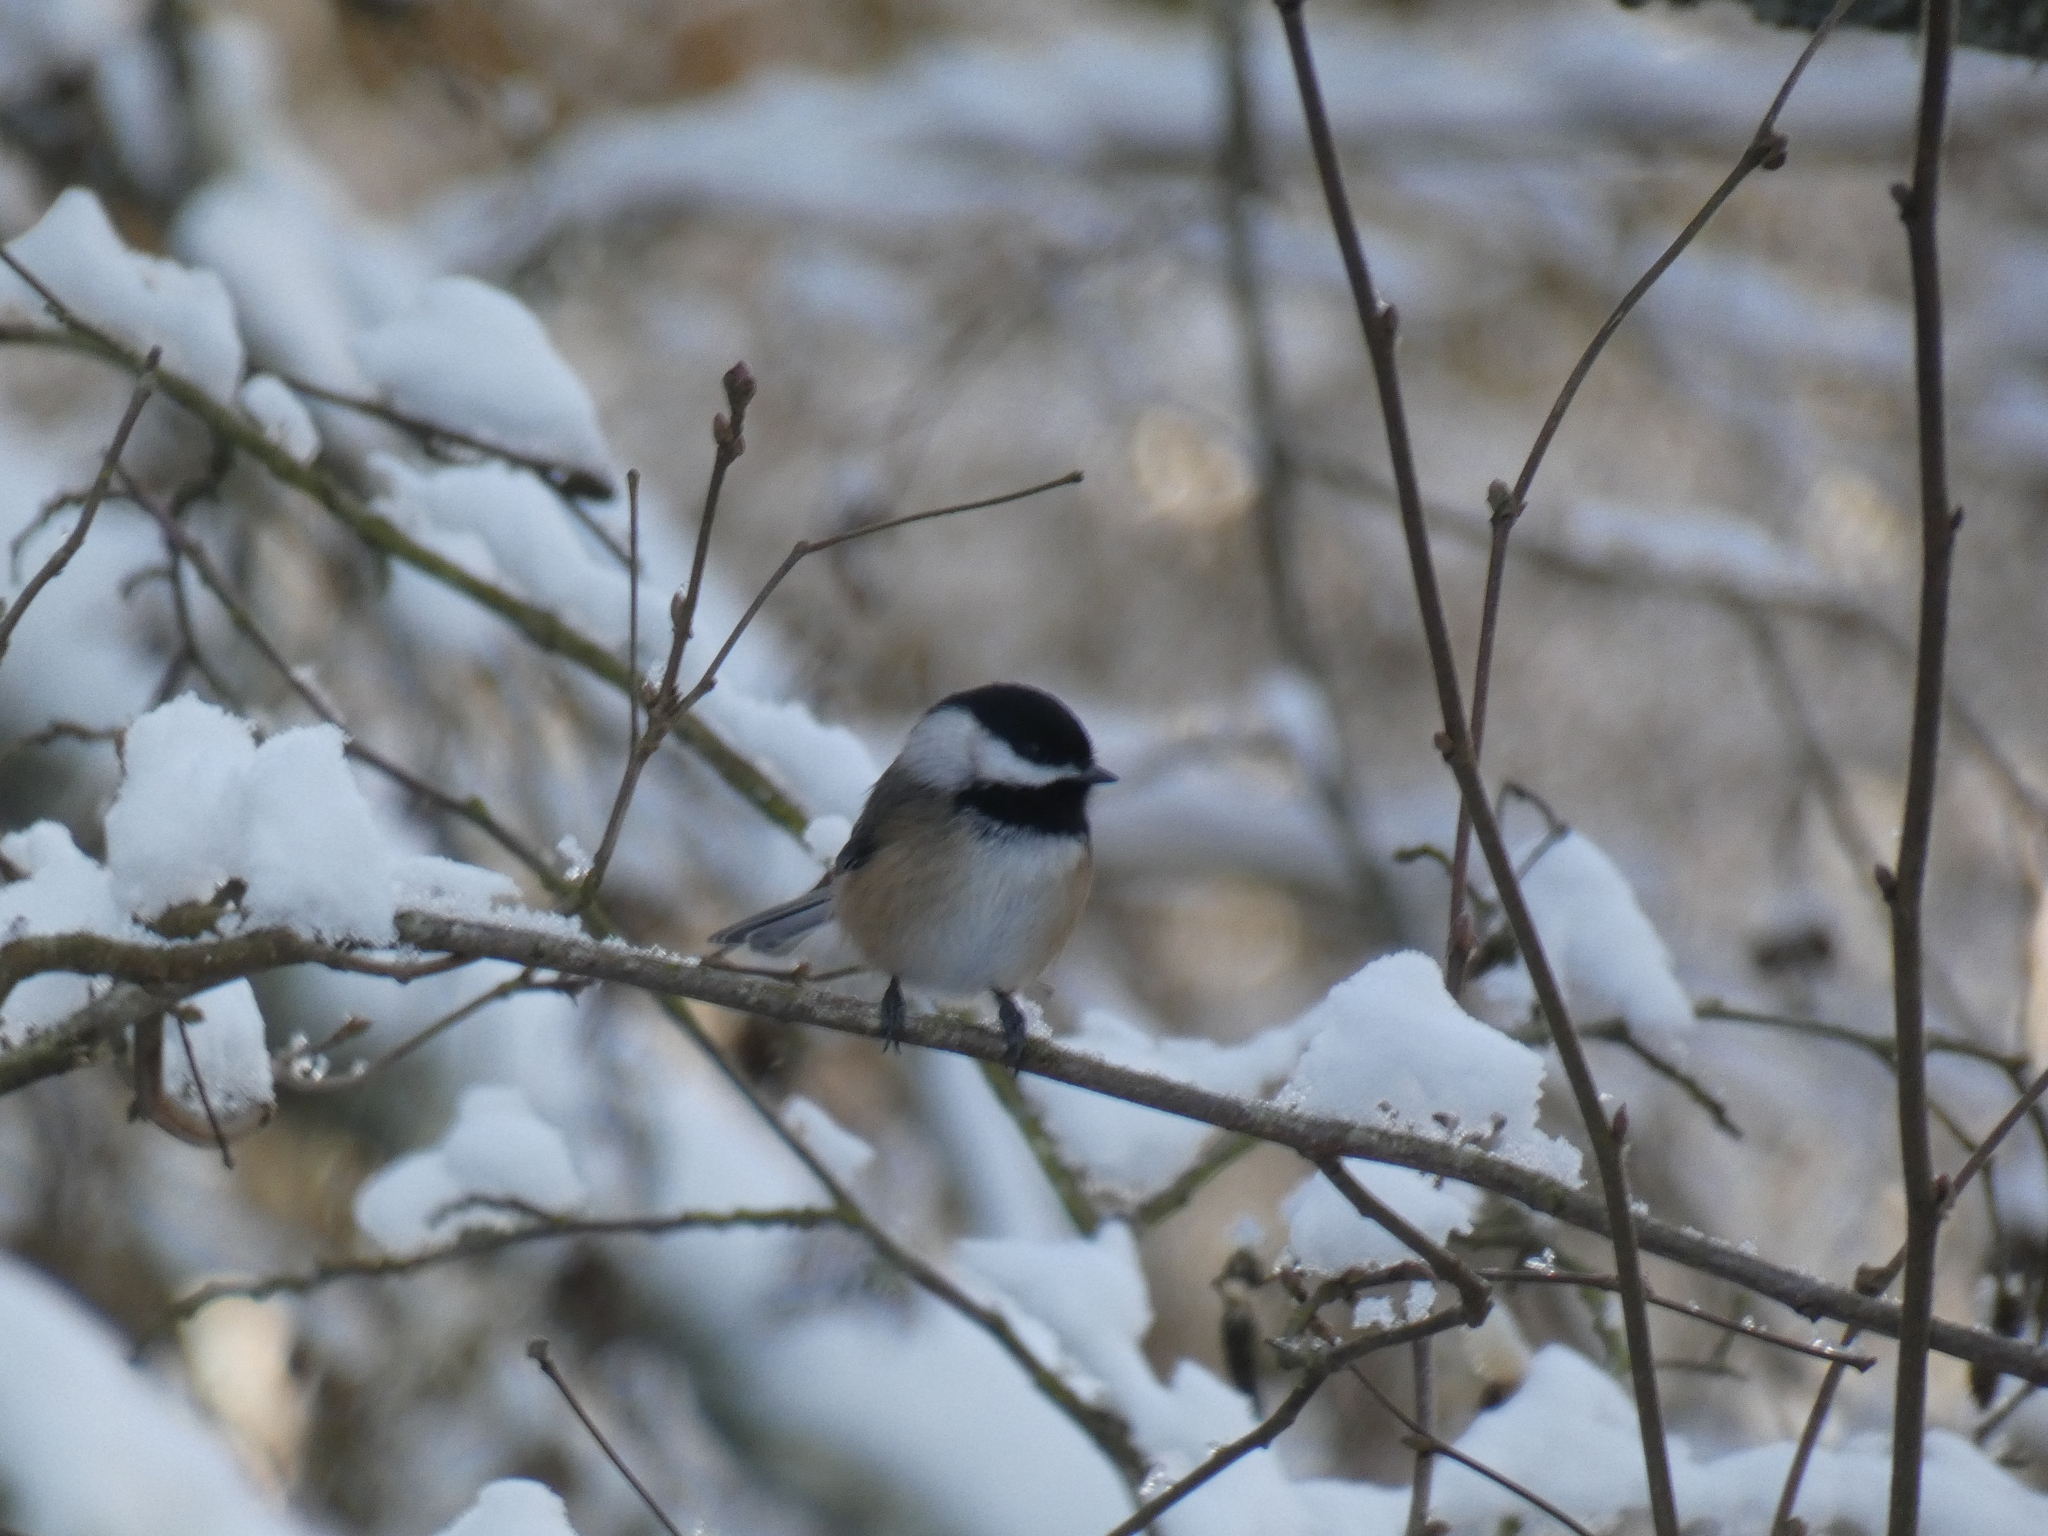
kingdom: Animalia
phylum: Chordata
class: Aves
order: Passeriformes
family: Paridae
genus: Poecile
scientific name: Poecile atricapillus
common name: Black-capped chickadee
